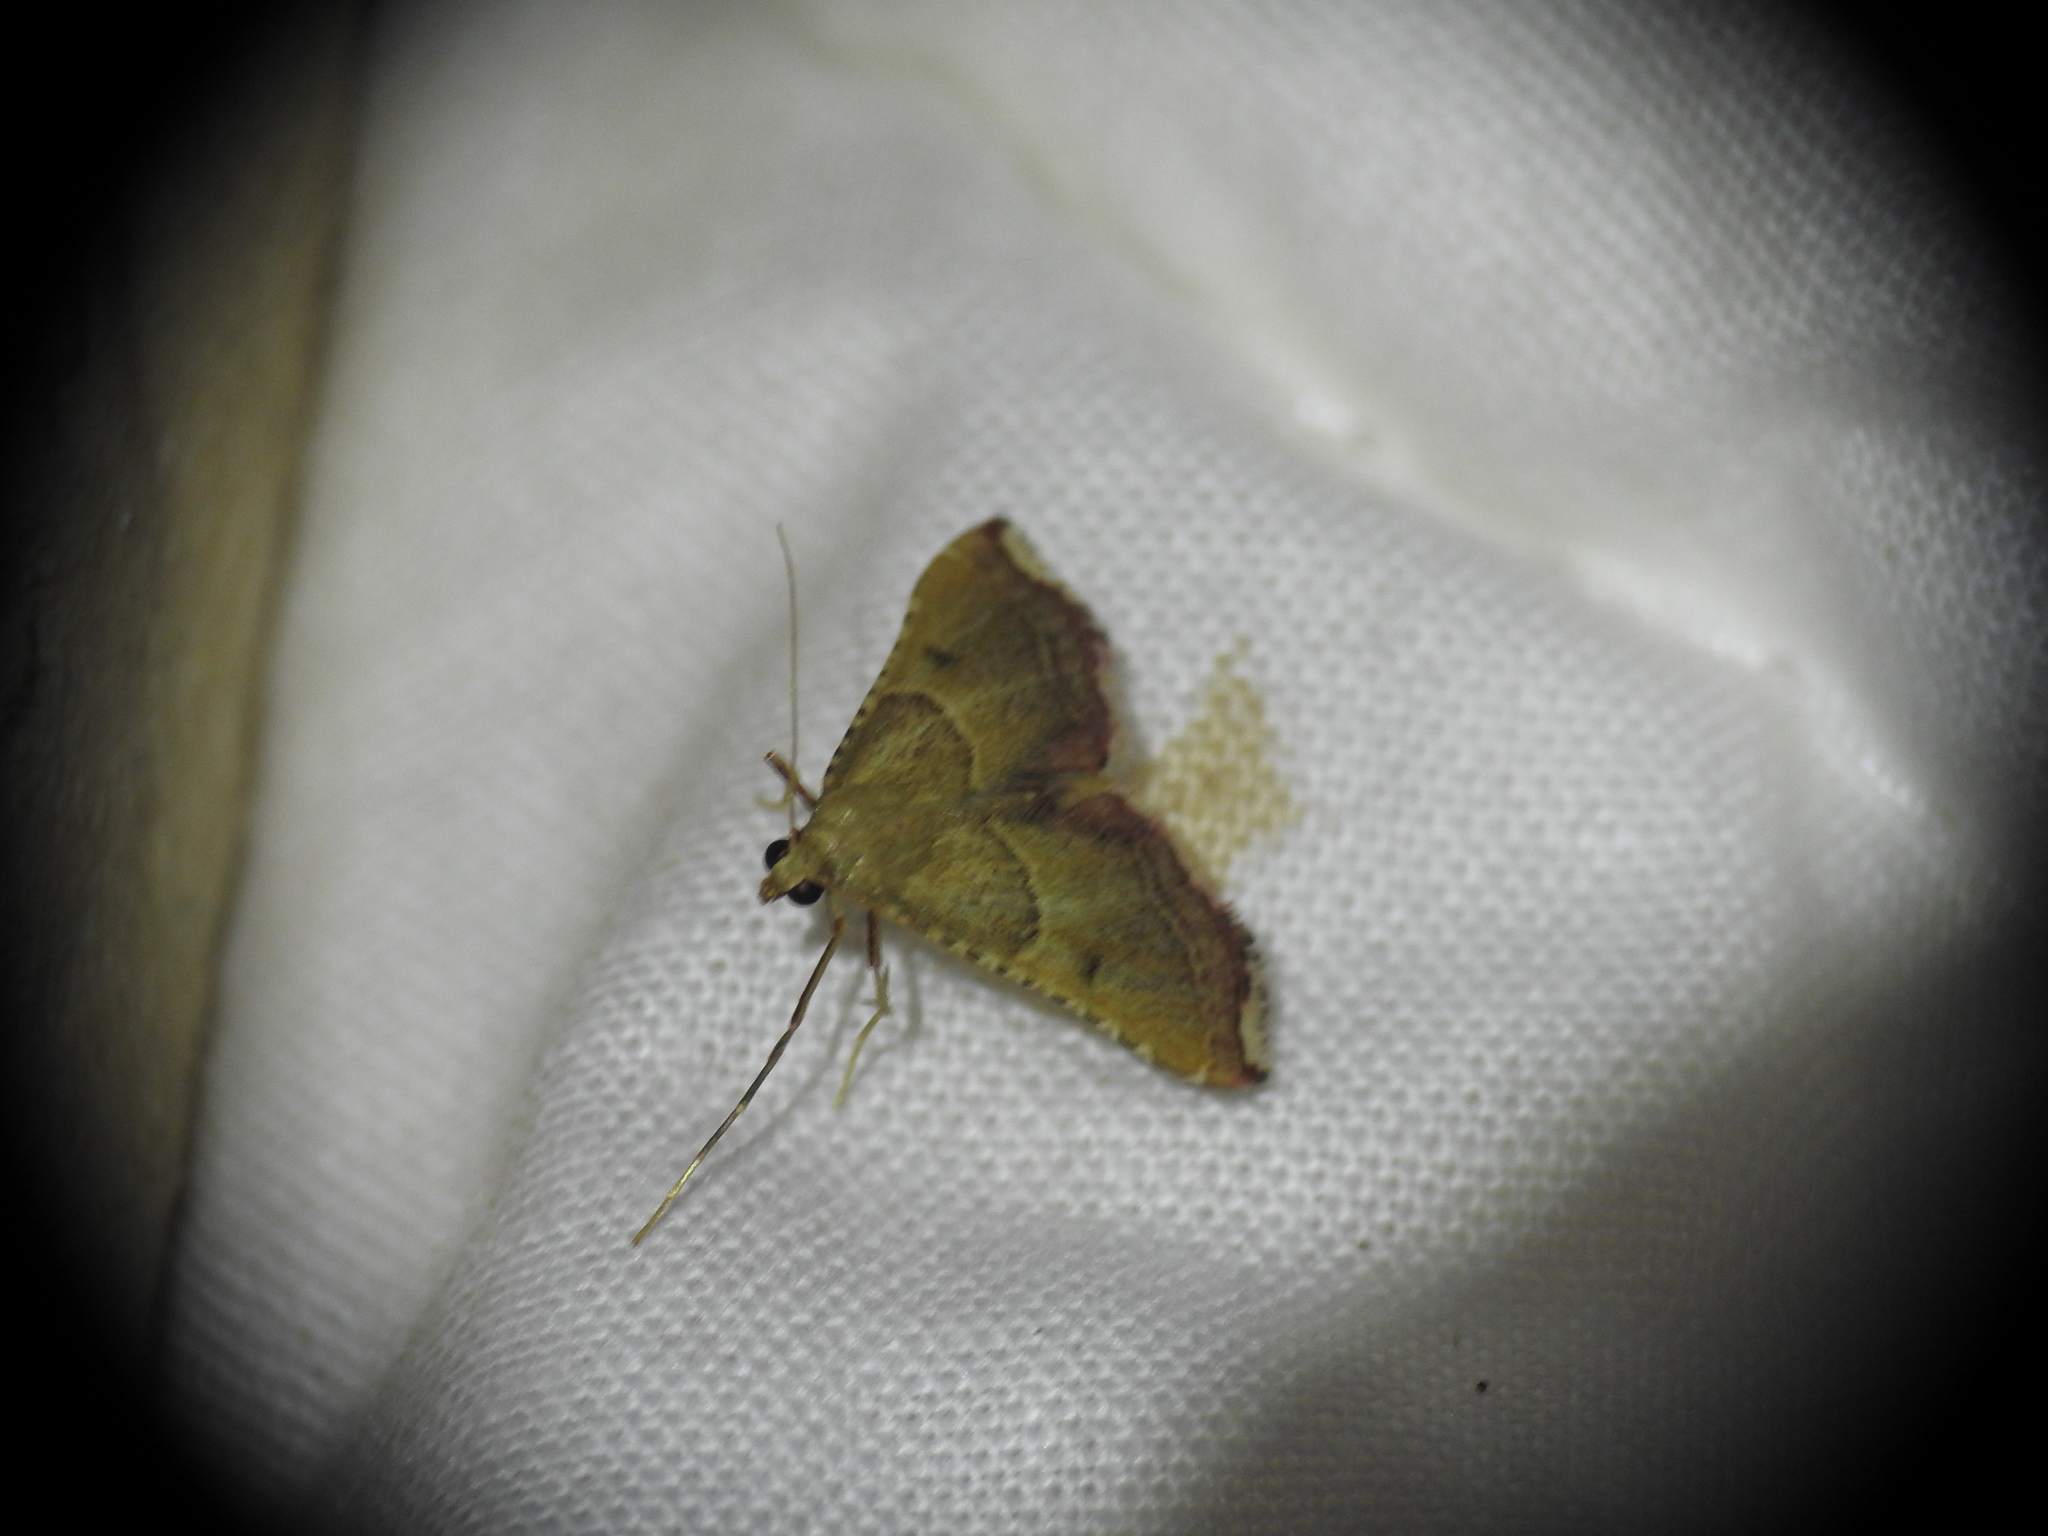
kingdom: Animalia
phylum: Arthropoda
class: Insecta
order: Lepidoptera
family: Pyralidae
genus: Endotricha
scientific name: Endotricha flammealis
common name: Rosy tabby
